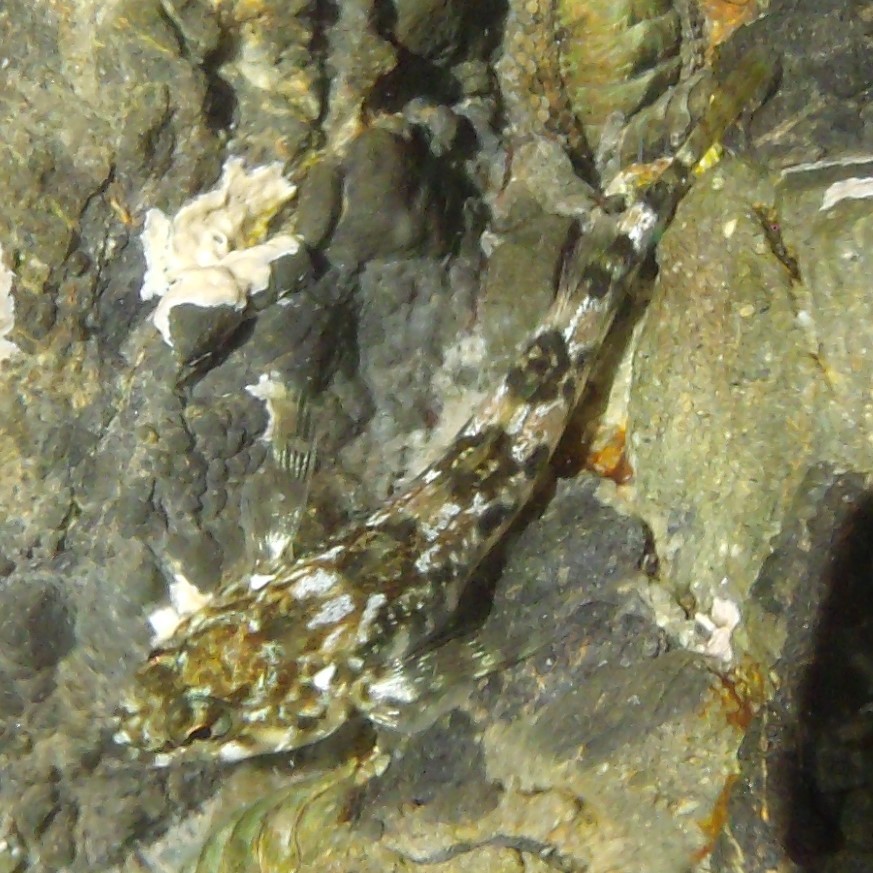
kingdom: Animalia
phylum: Chordata
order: Perciformes
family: Tripterygiidae
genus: Bellapiscis
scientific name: Bellapiscis lesleyae
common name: Mottled twister
